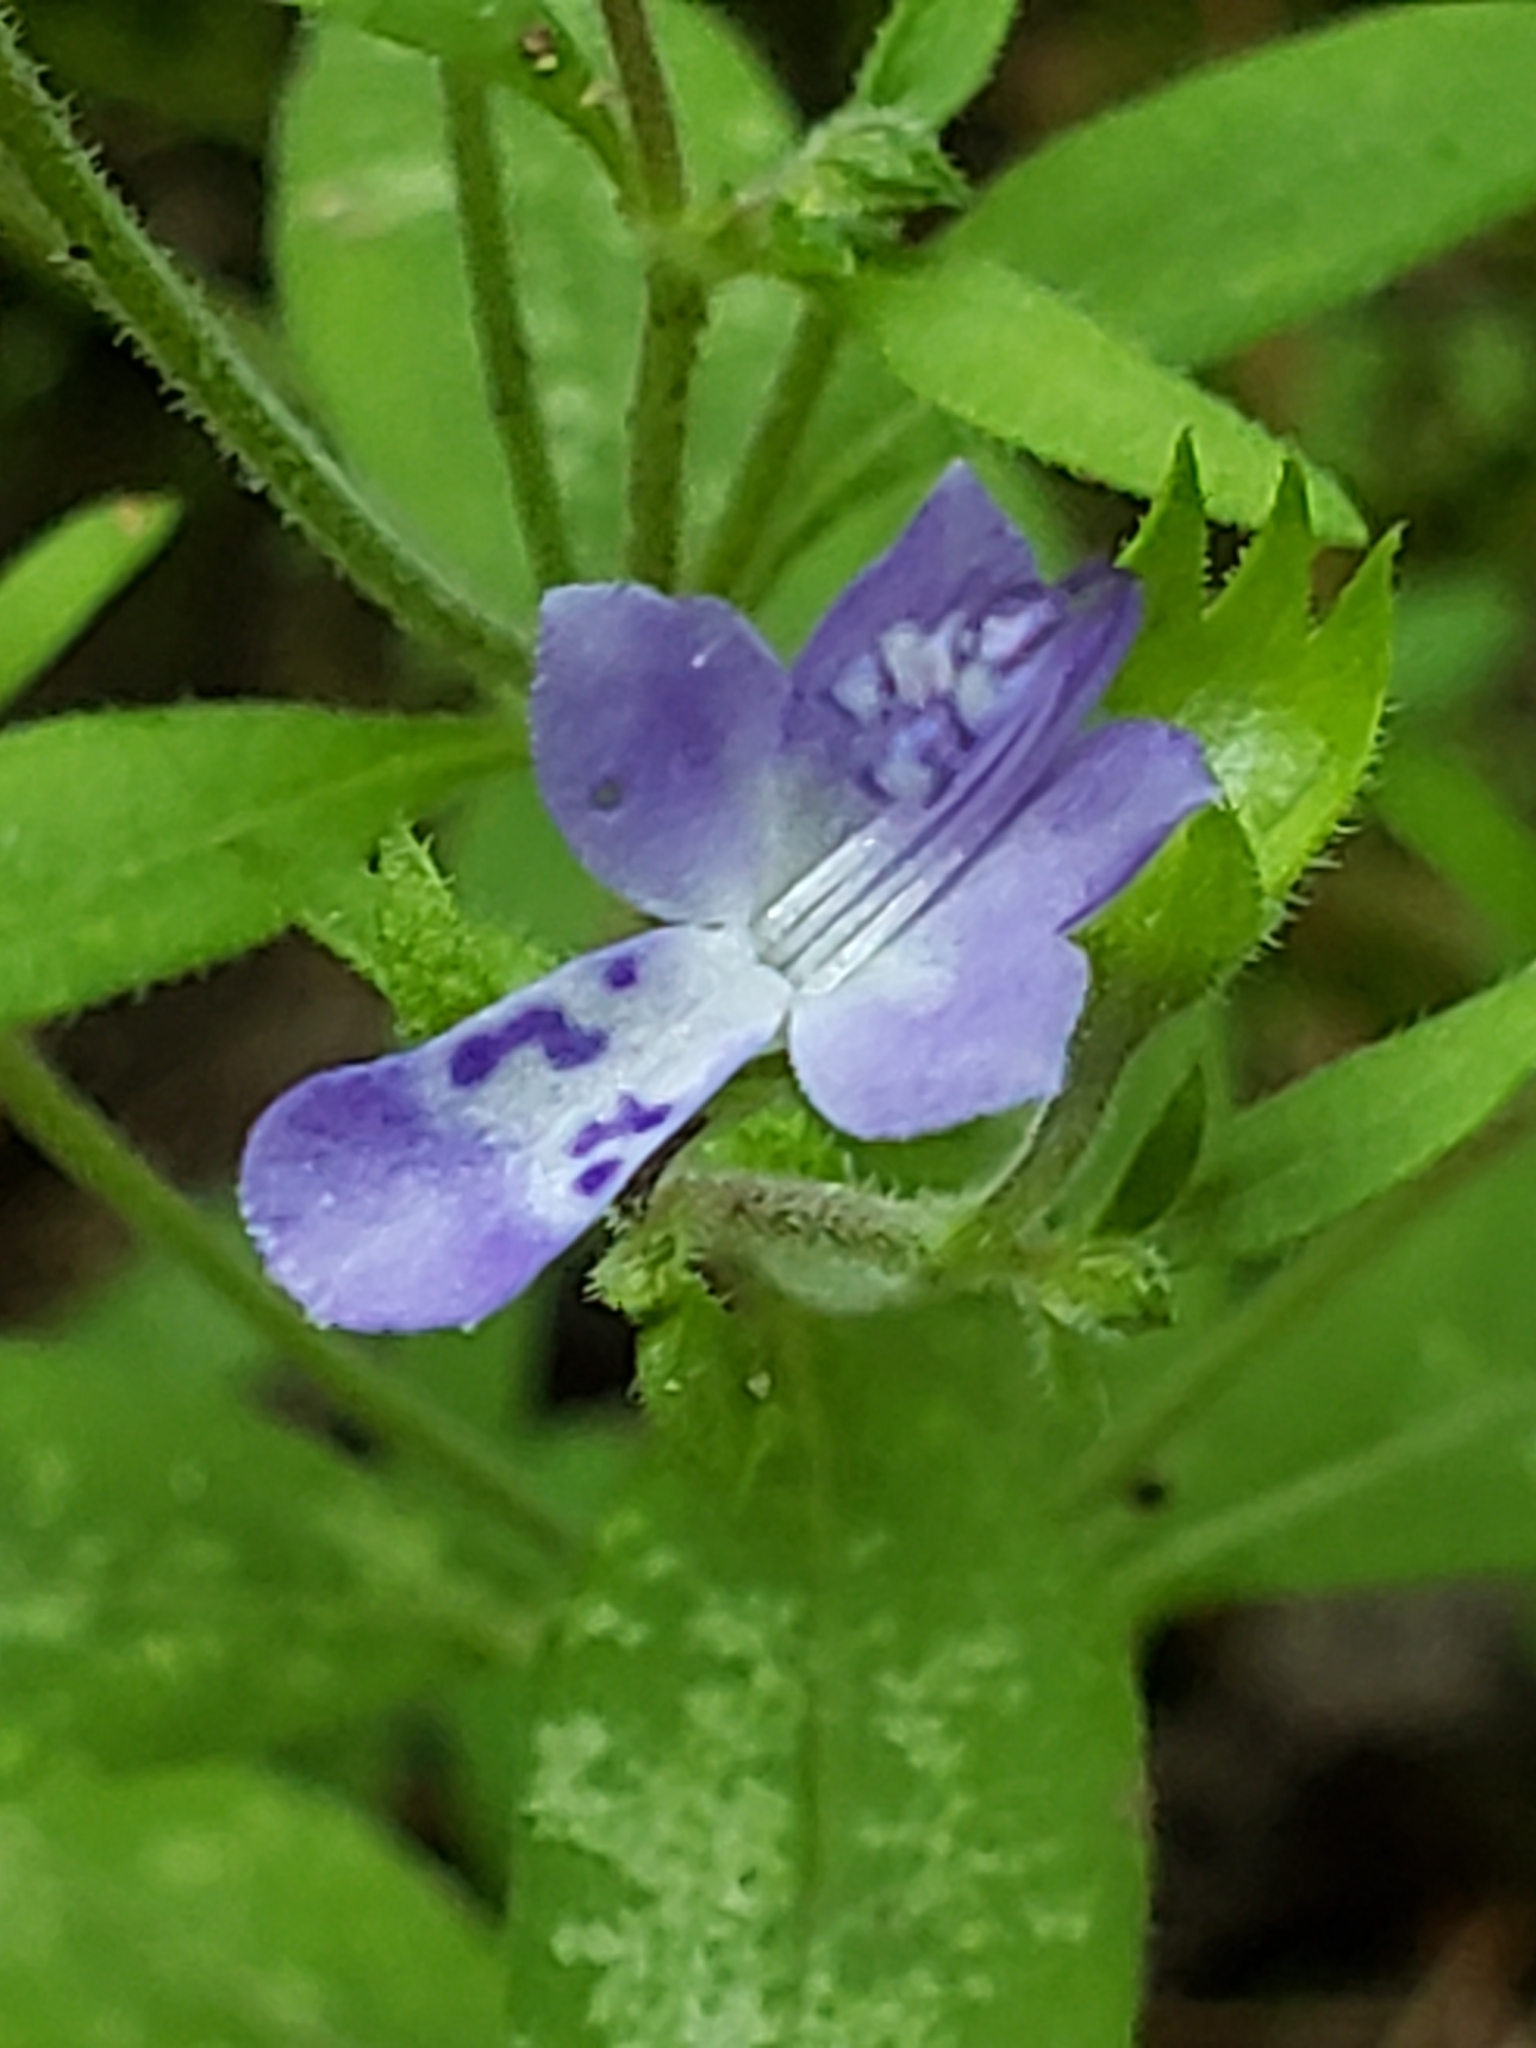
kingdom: Plantae
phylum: Tracheophyta
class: Magnoliopsida
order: Lamiales
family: Lamiaceae
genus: Trichostema
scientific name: Trichostema dichotomum
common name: Bastard pennyroyal
